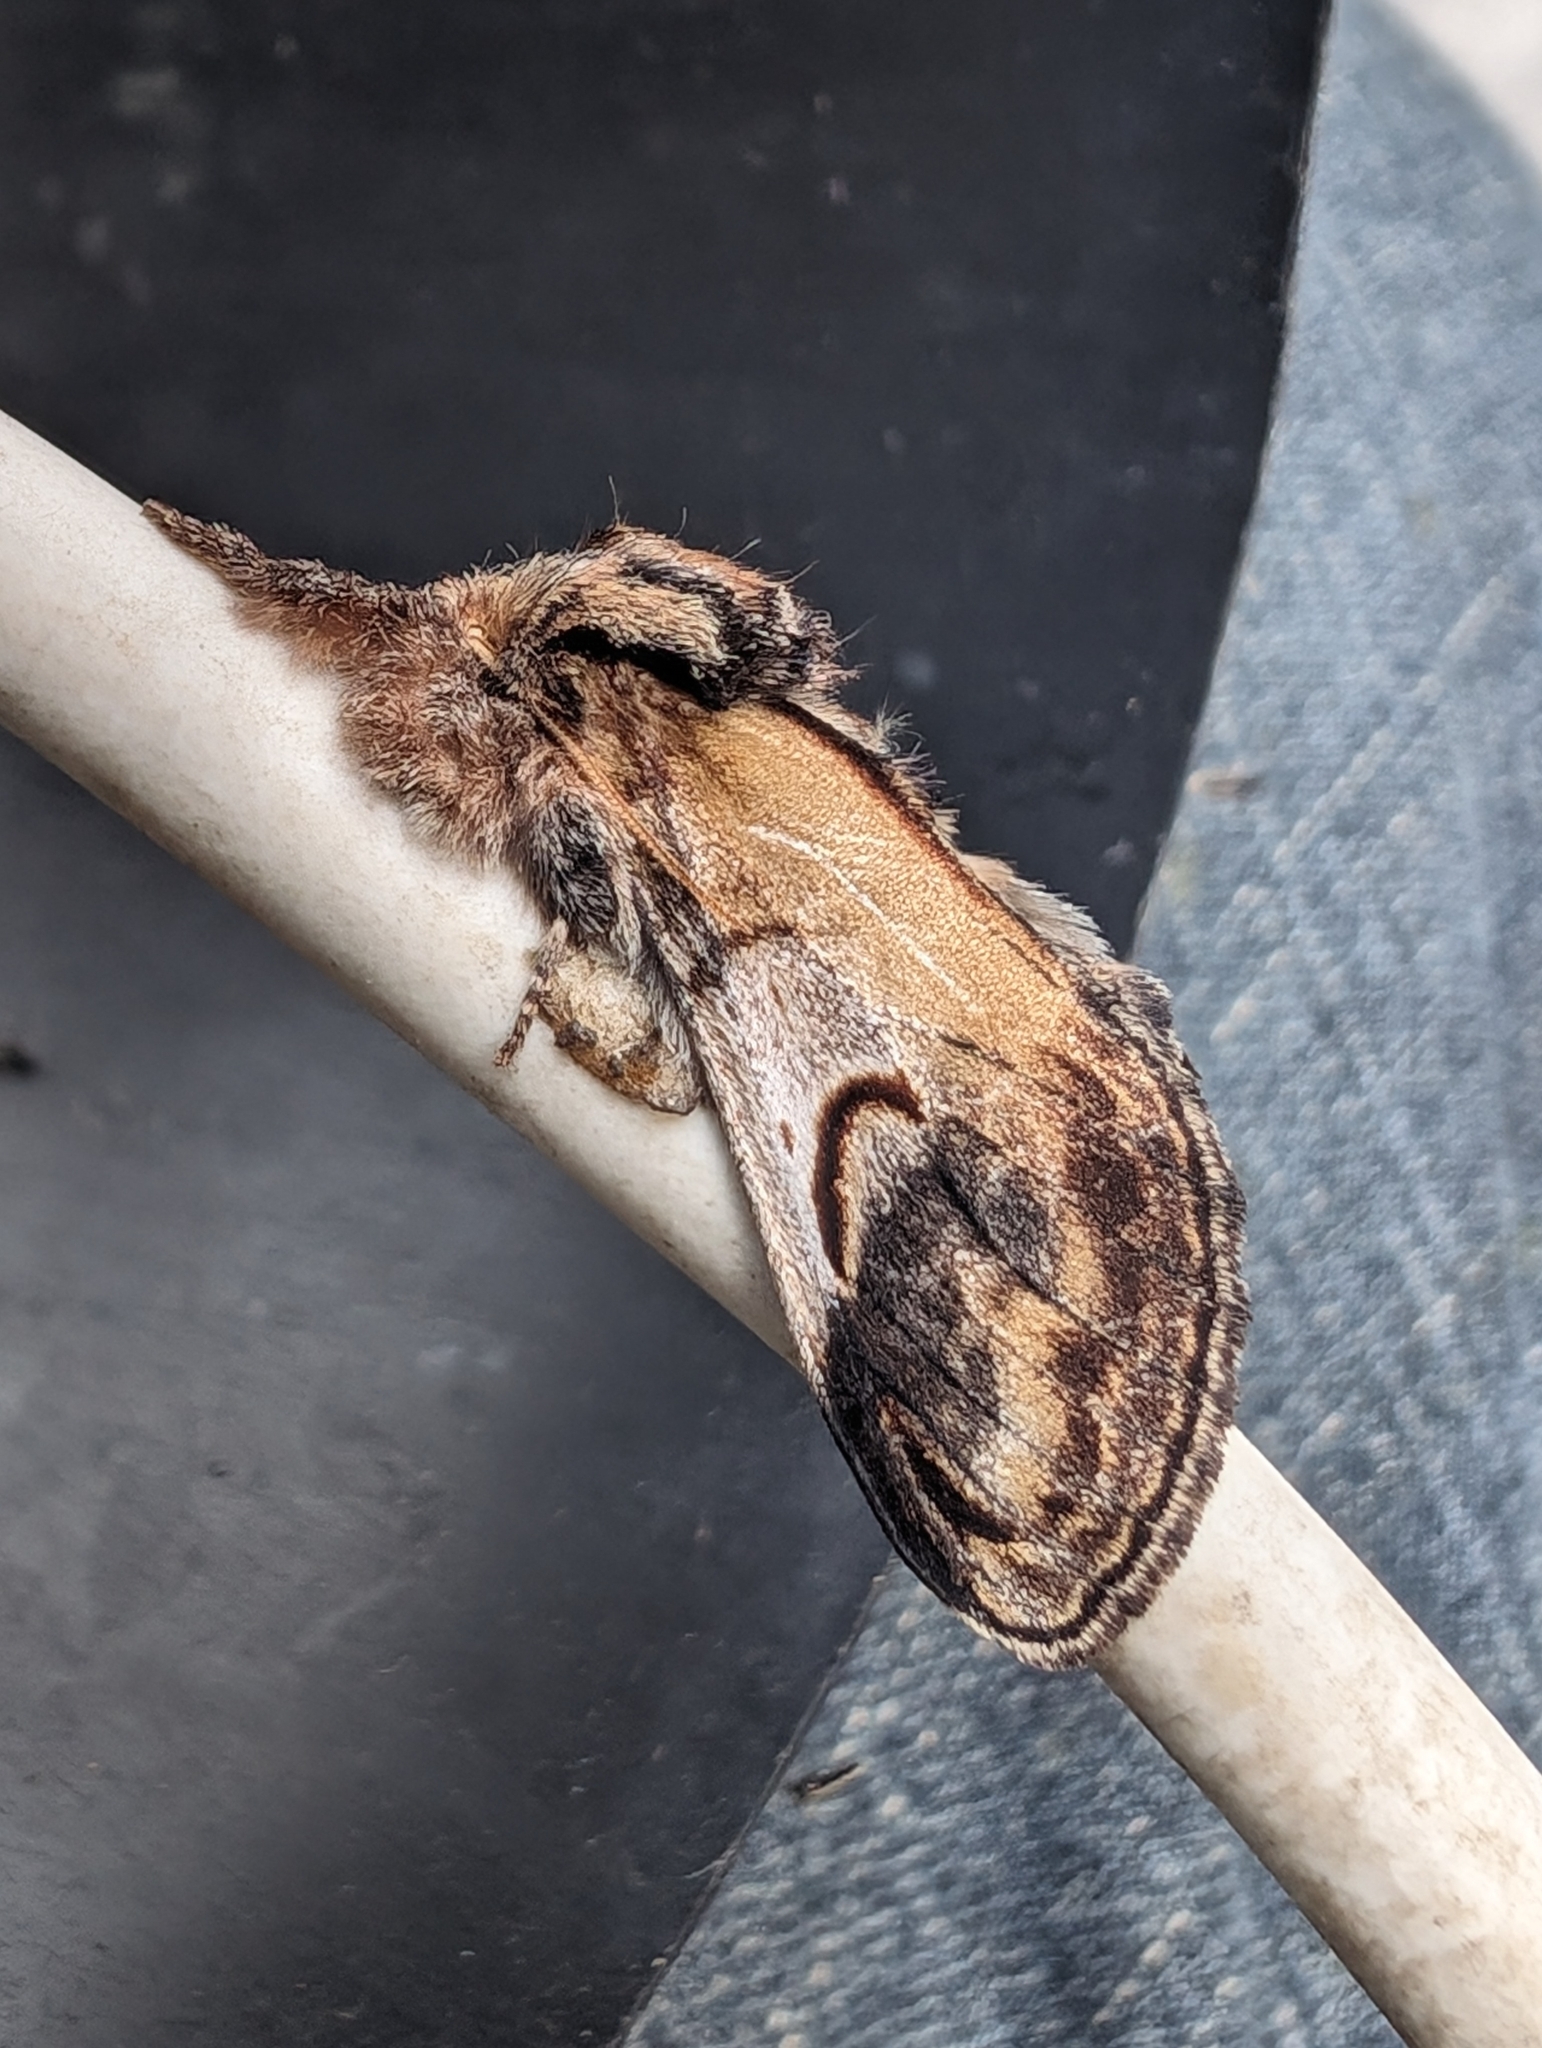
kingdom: Animalia
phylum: Arthropoda
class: Insecta
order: Lepidoptera
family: Notodontidae
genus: Notodonta
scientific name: Notodonta ziczac
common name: Pebble prominent
